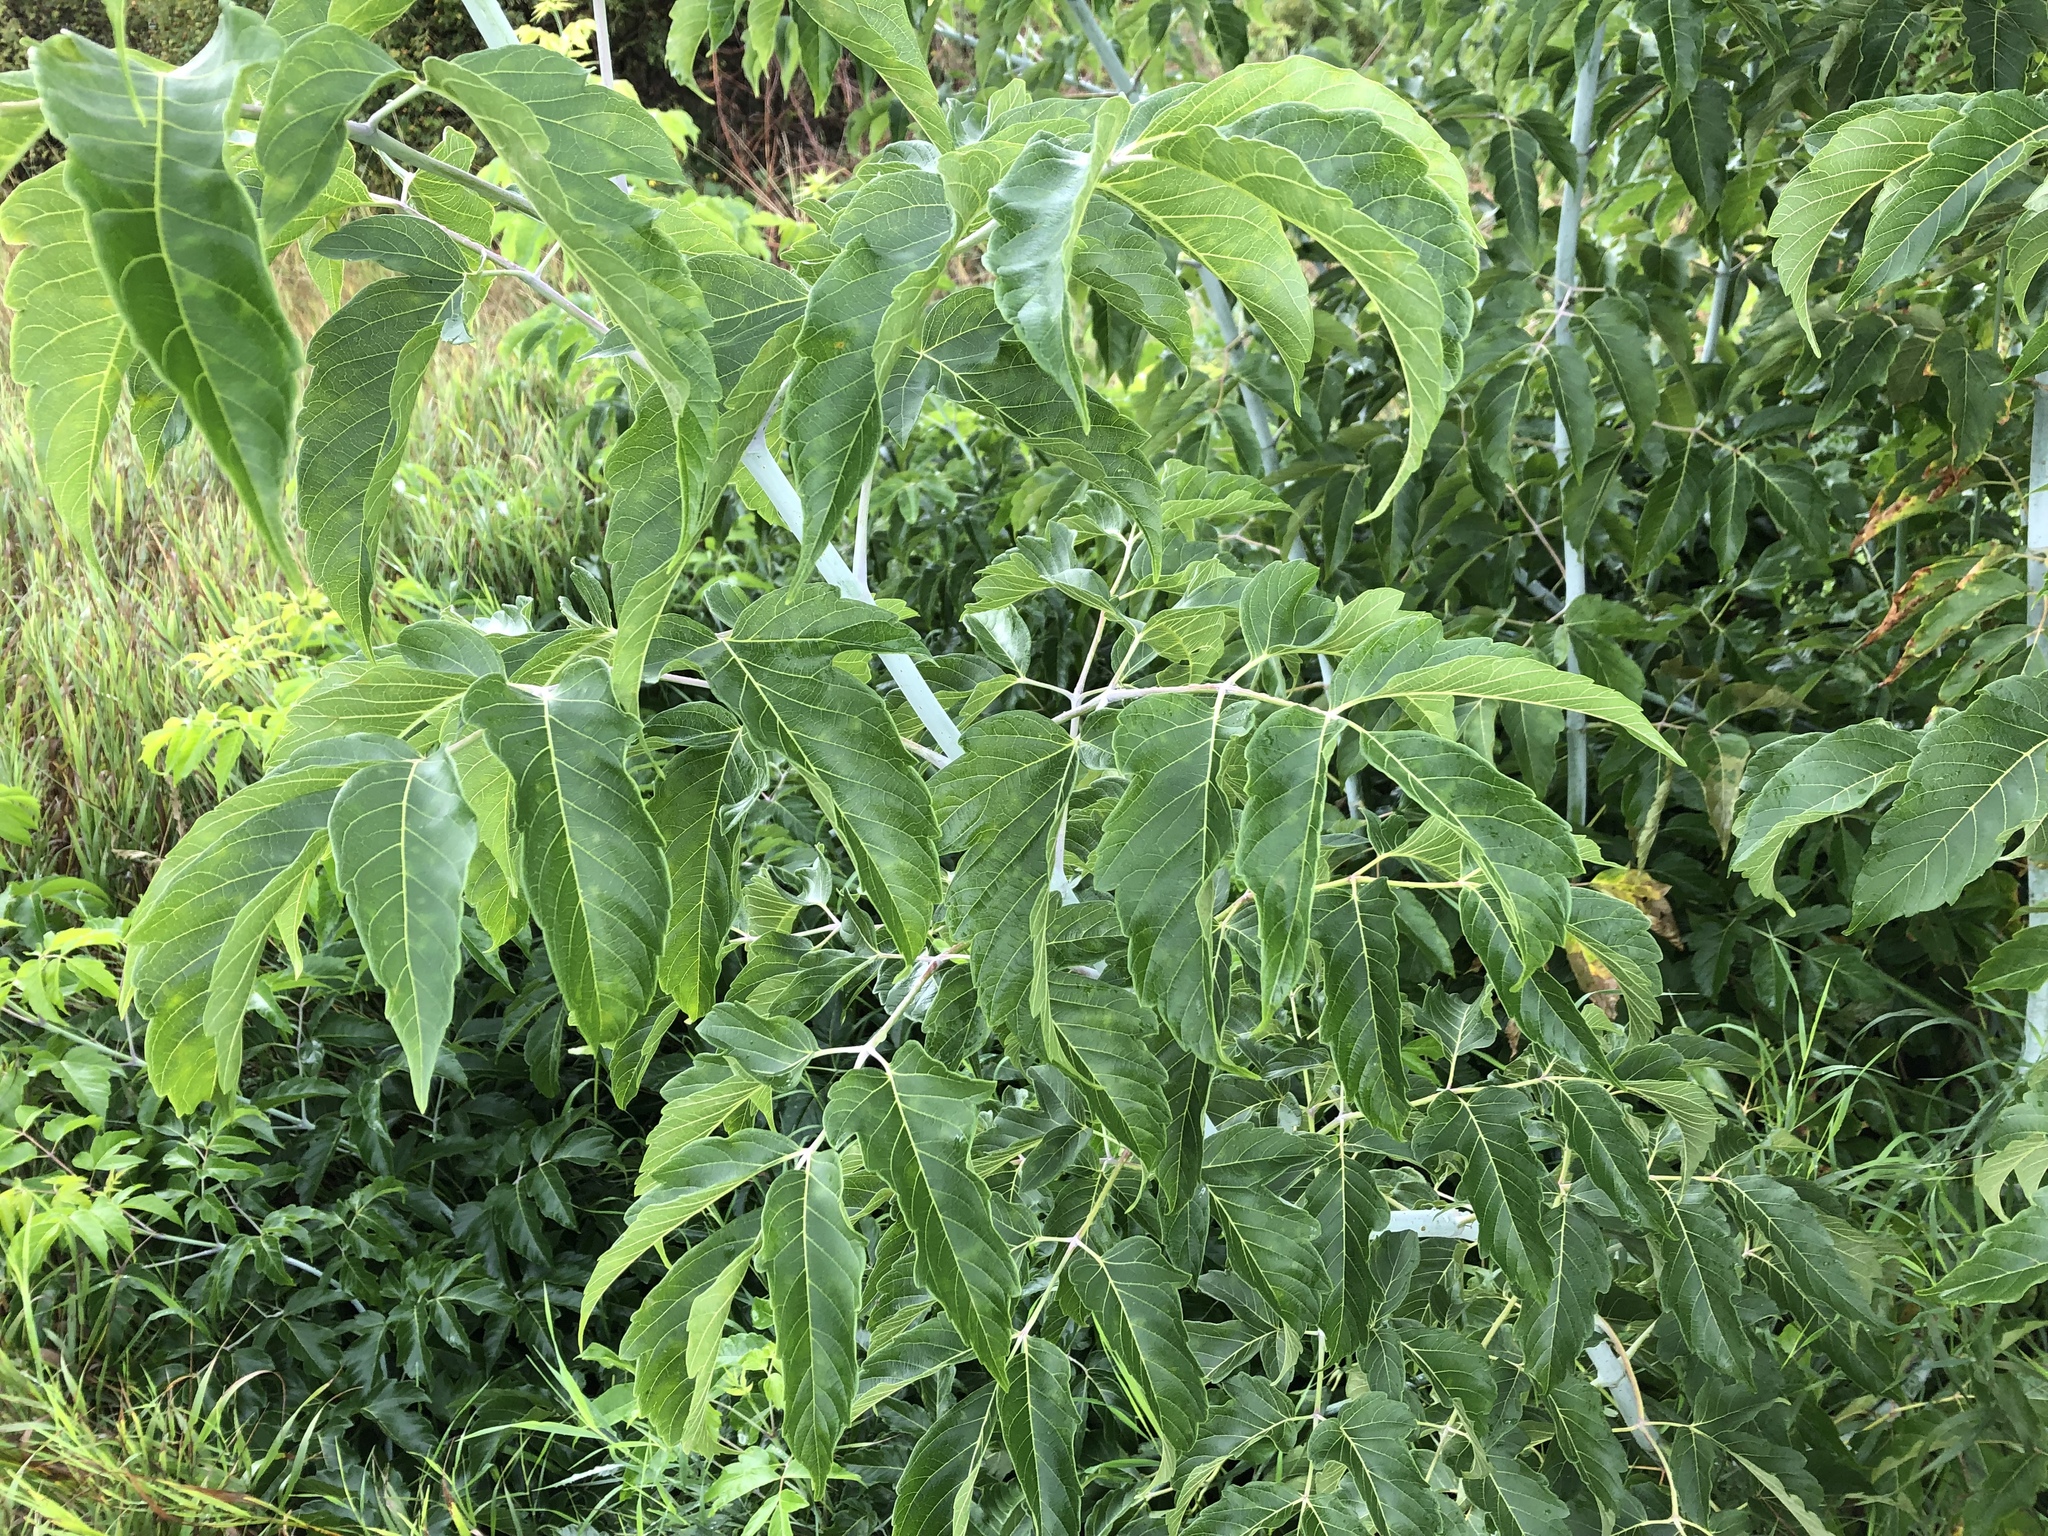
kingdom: Plantae
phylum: Tracheophyta
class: Magnoliopsida
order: Sapindales
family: Sapindaceae
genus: Acer
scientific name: Acer negundo
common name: Ashleaf maple
